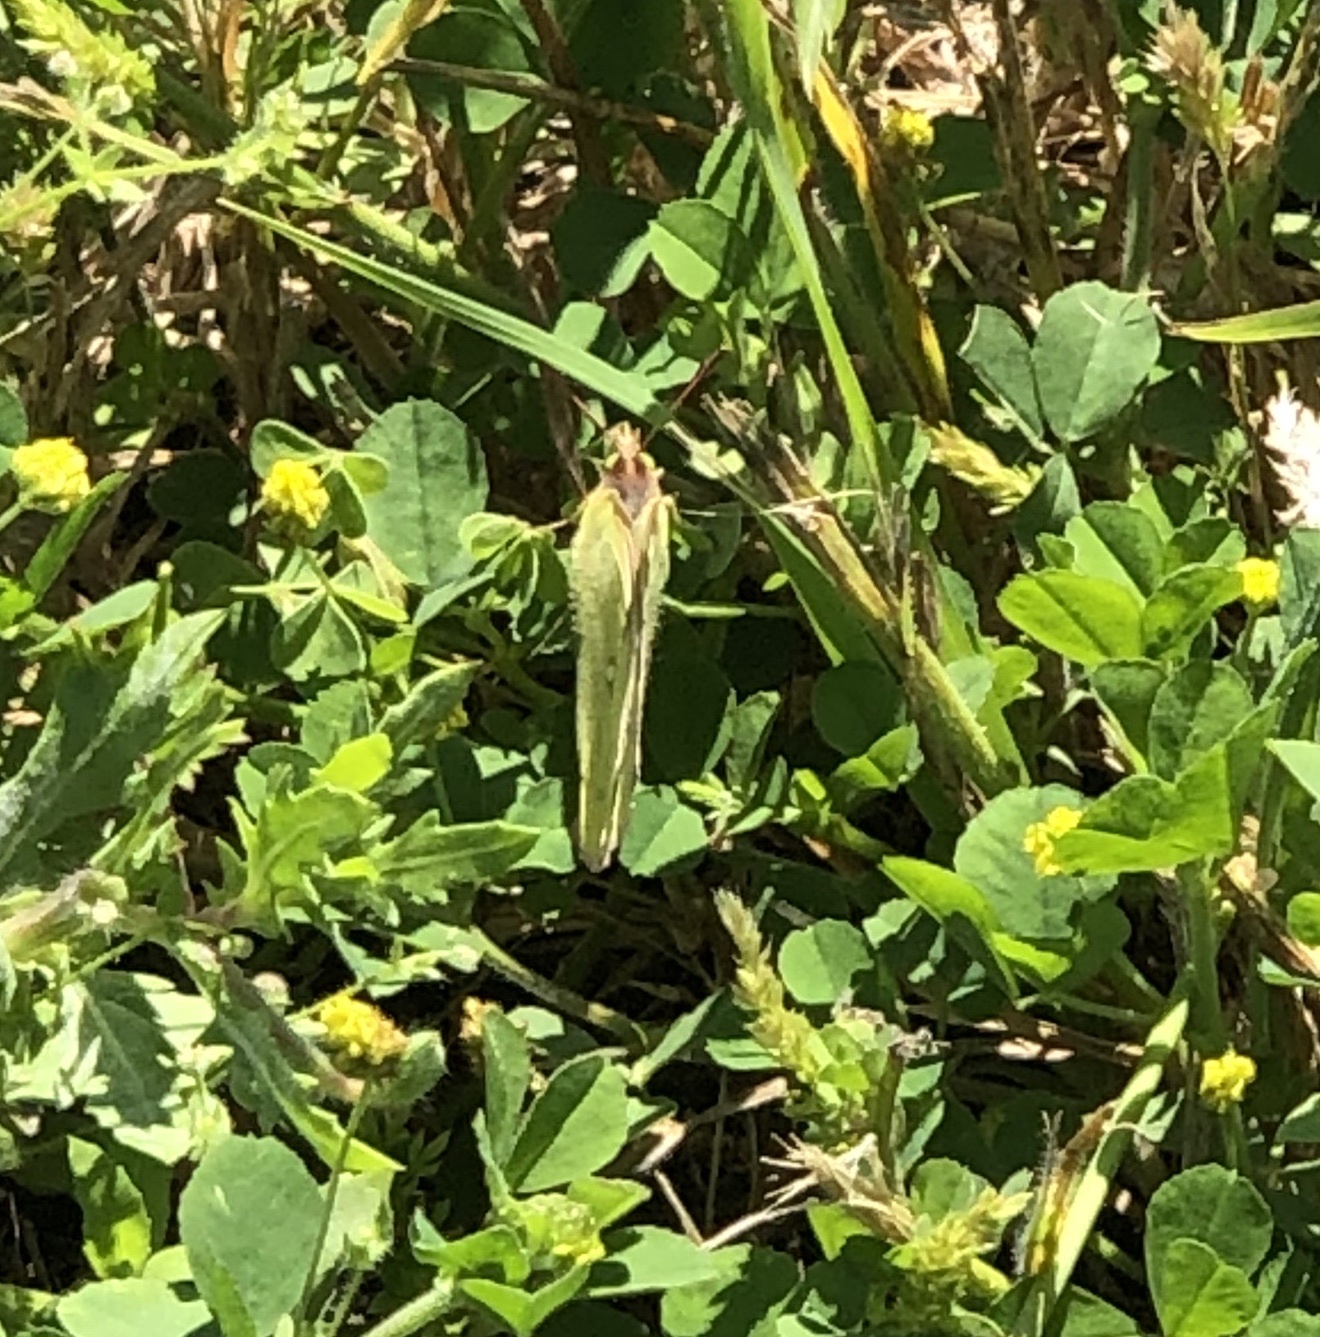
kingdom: Animalia
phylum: Arthropoda
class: Insecta
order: Lepidoptera
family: Pieridae
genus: Colias
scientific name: Colias eurytheme
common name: Alfalfa butterfly
